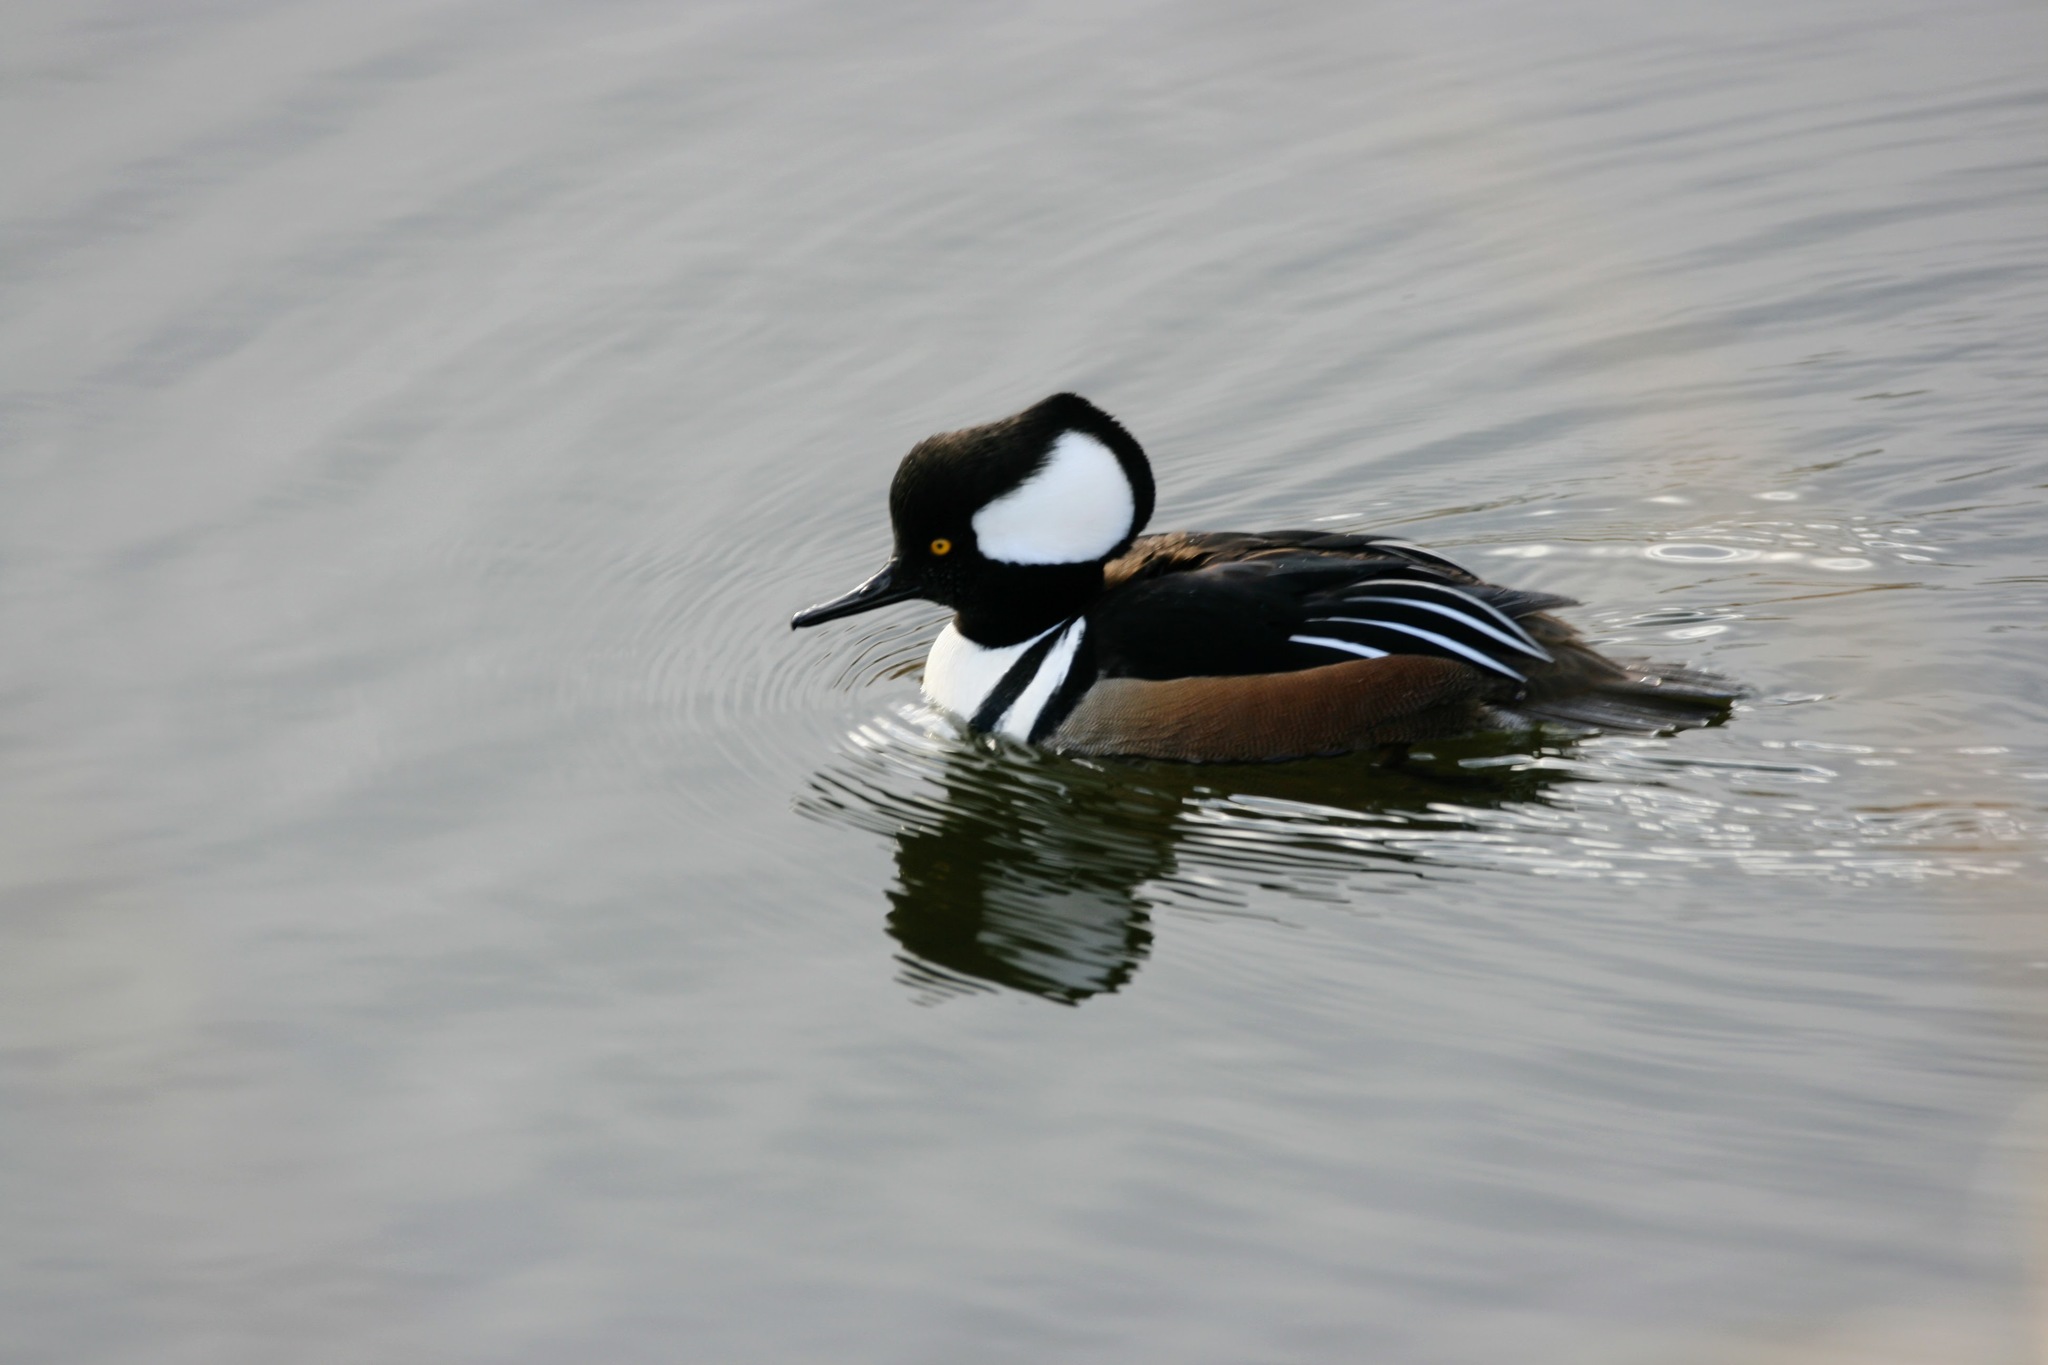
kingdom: Animalia
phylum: Chordata
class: Aves
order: Anseriformes
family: Anatidae
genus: Lophodytes
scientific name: Lophodytes cucullatus
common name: Hooded merganser
